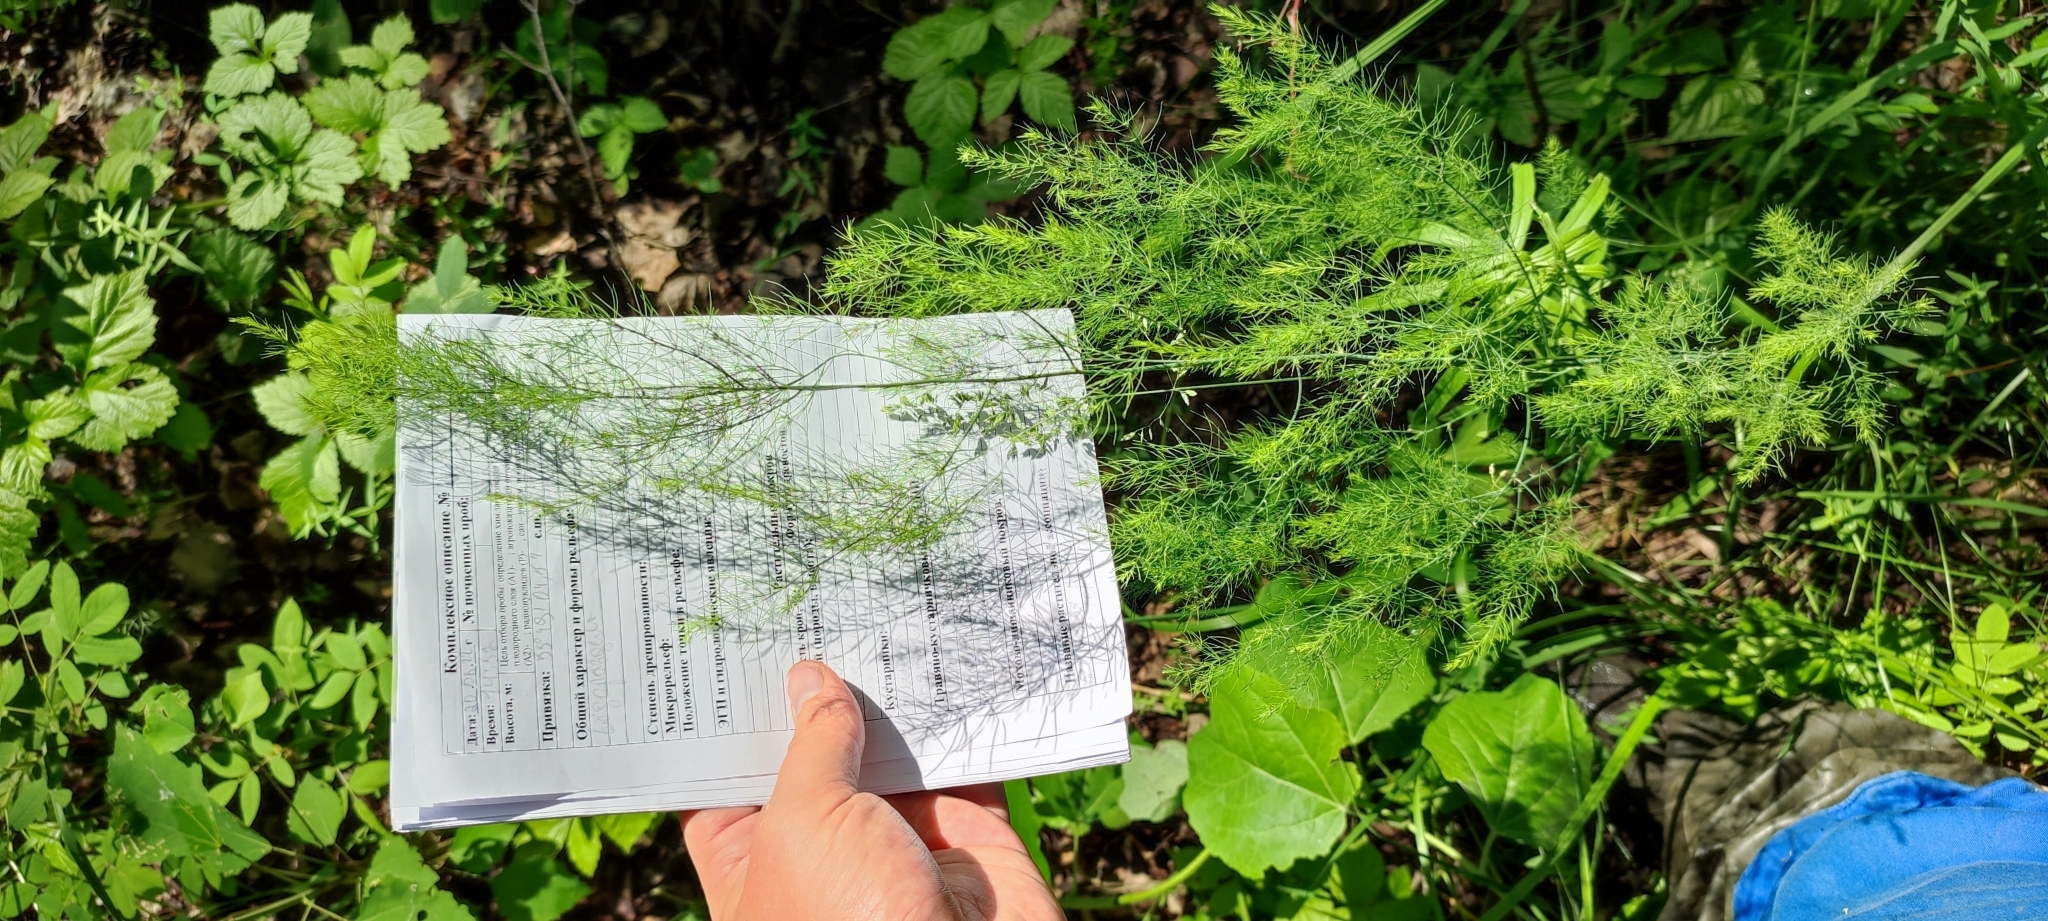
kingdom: Plantae
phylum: Tracheophyta
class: Liliopsida
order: Asparagales
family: Asparagaceae
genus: Asparagus
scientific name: Asparagus officinalis
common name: Garden asparagus
